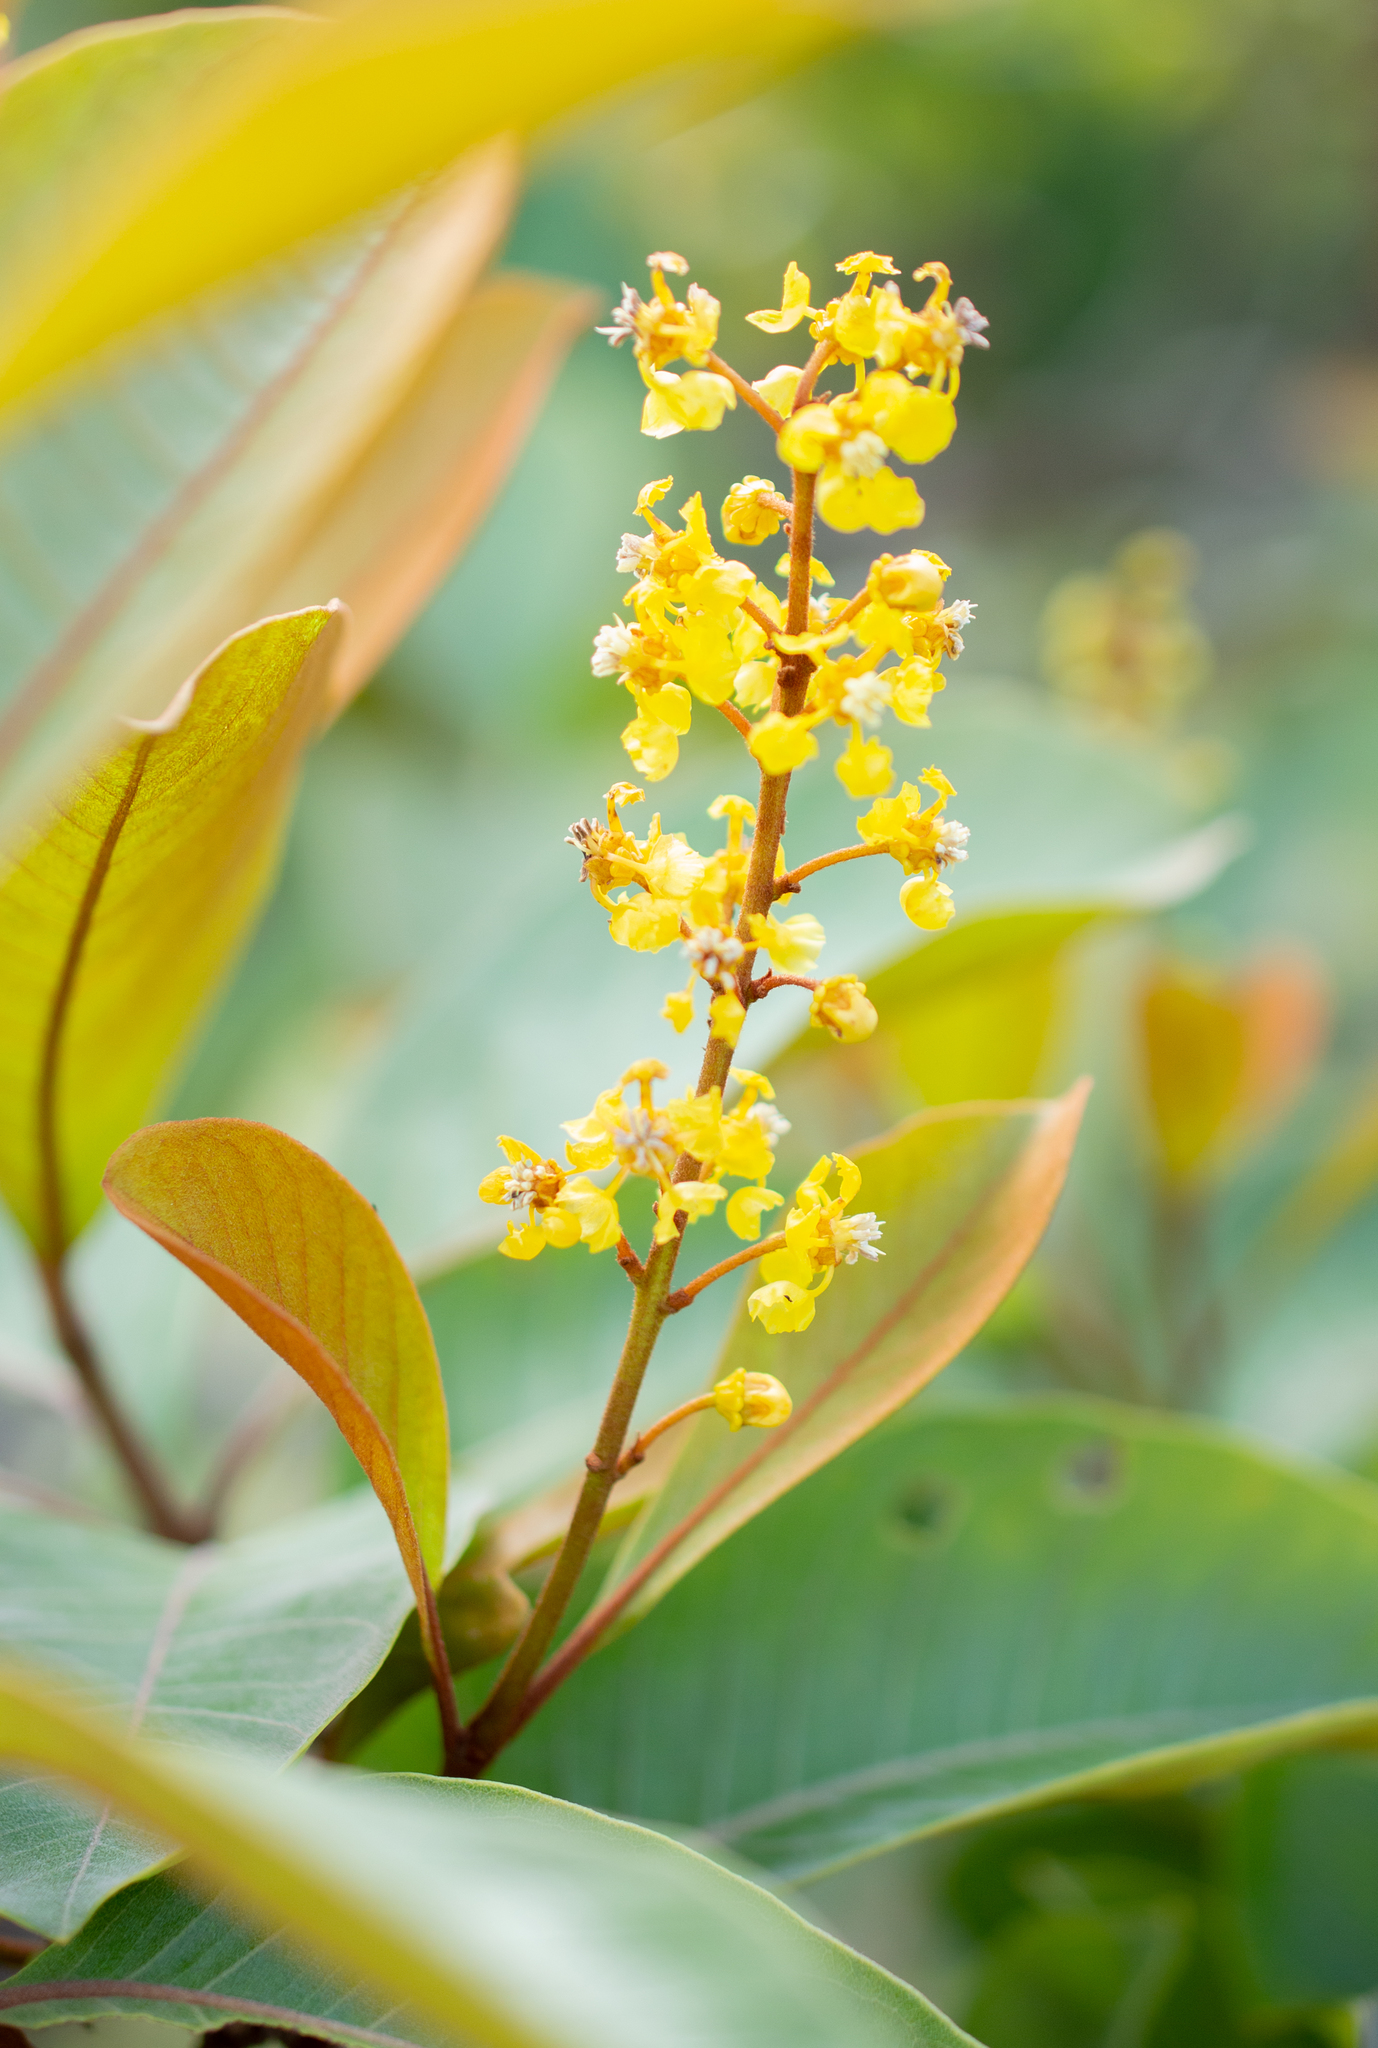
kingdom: Plantae
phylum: Tracheophyta
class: Magnoliopsida
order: Malpighiales
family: Malpighiaceae
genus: Byrsonima
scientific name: Byrsonima crassifolia
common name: Golden spoon
